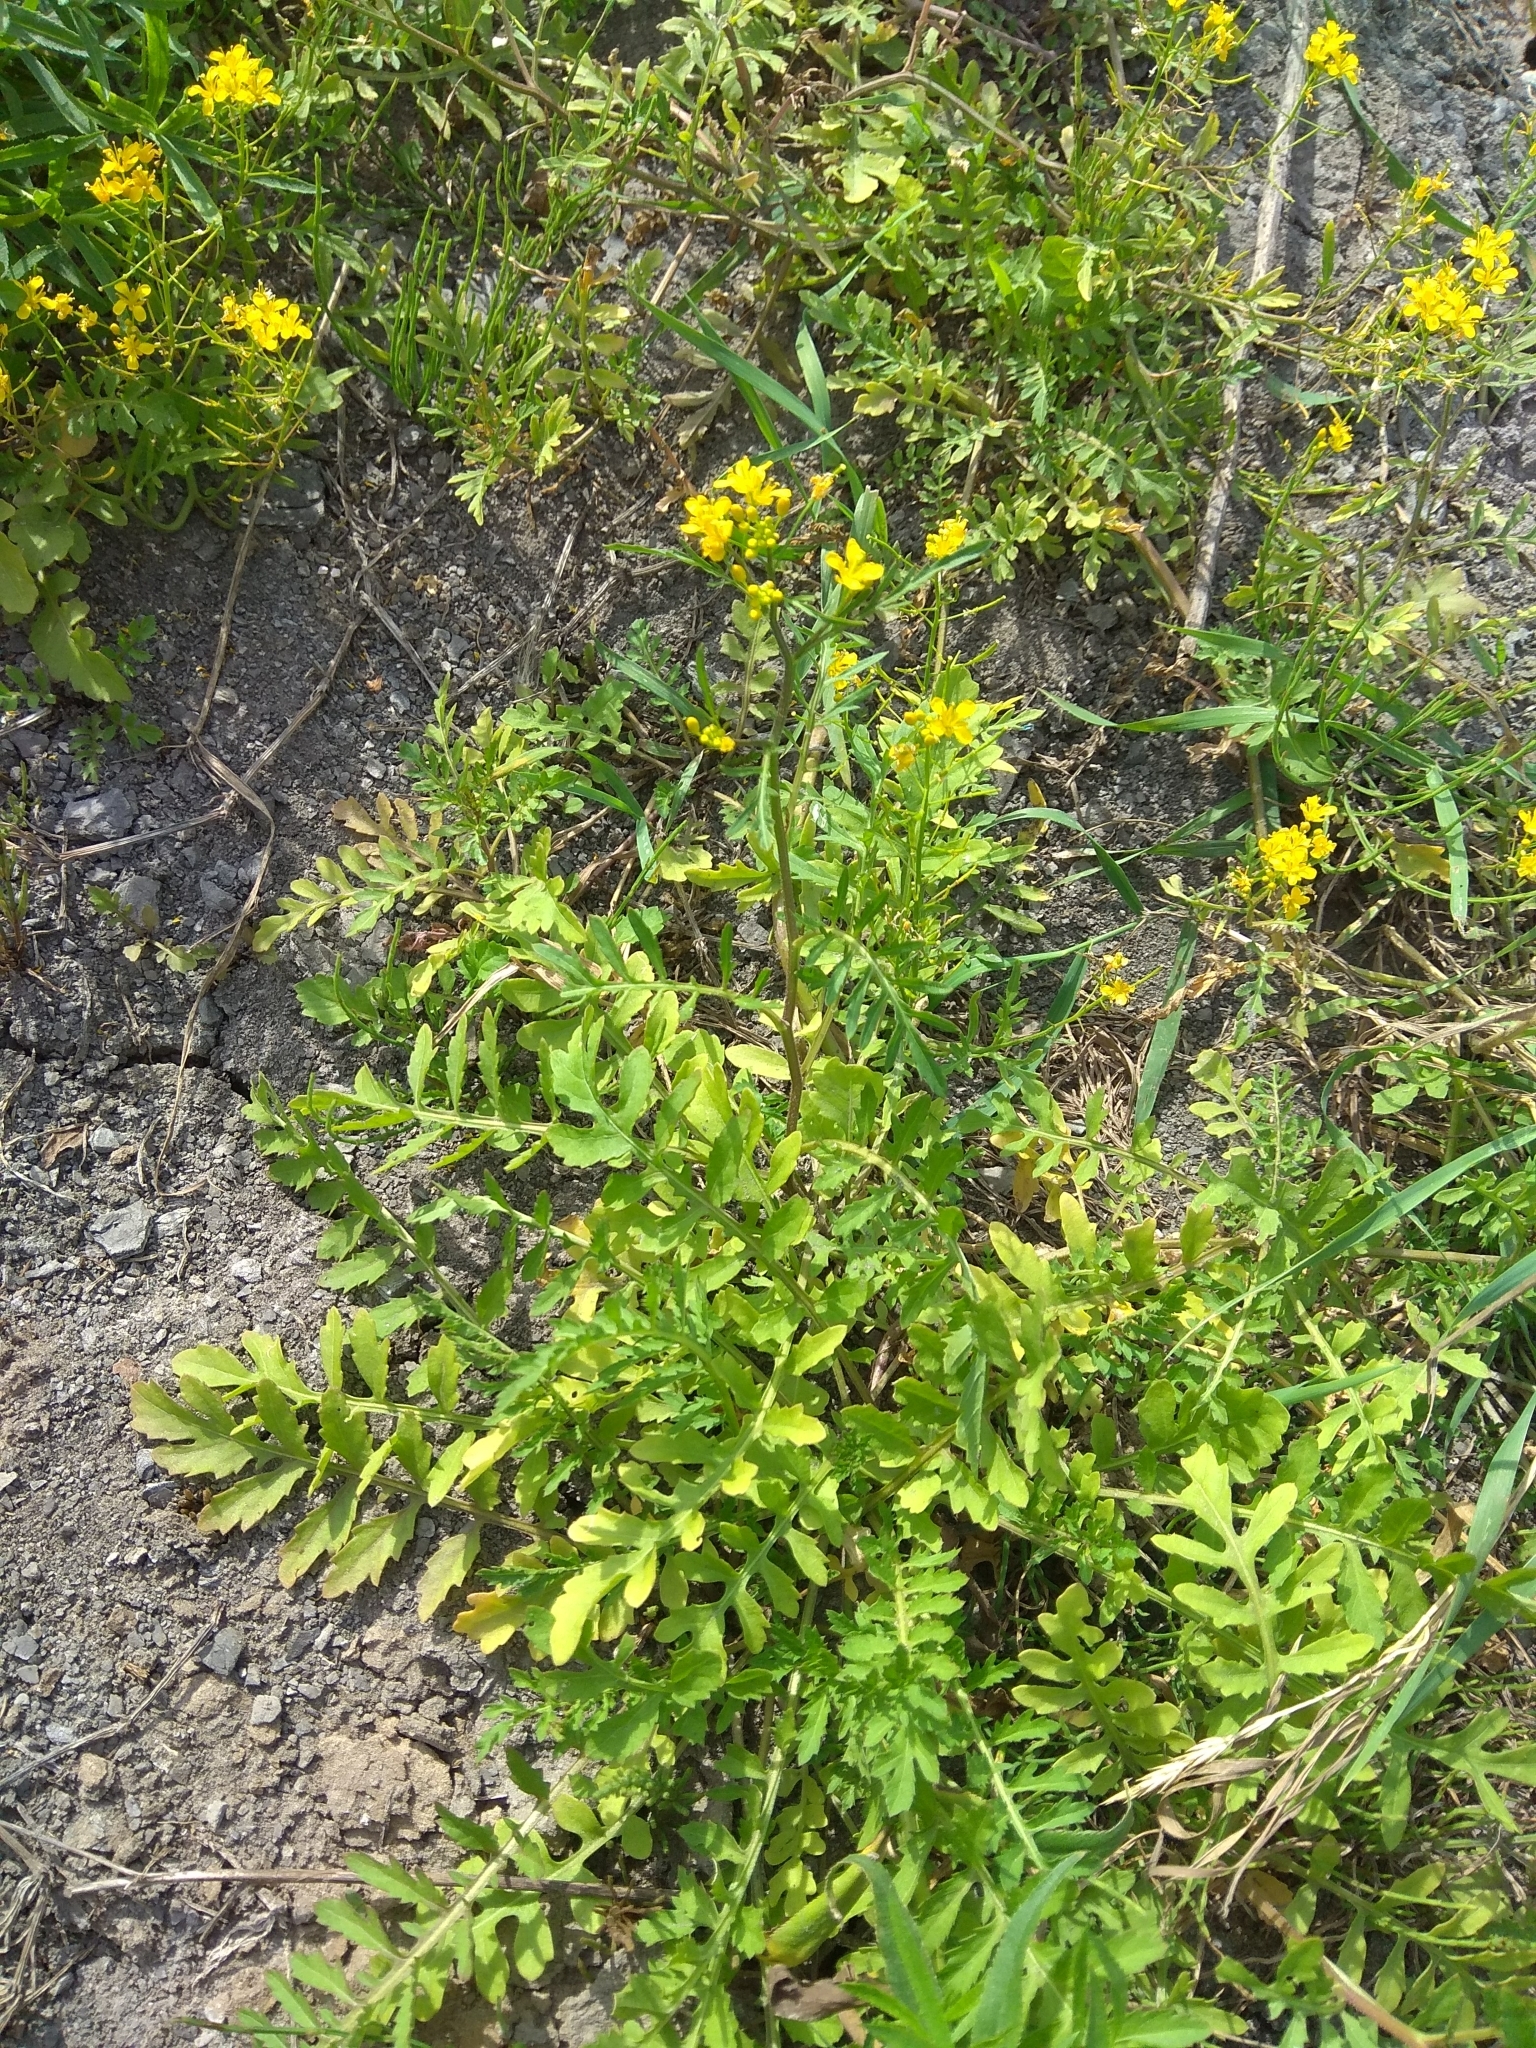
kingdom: Plantae
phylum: Tracheophyta
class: Magnoliopsida
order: Brassicales
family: Brassicaceae
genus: Rorippa
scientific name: Rorippa sylvestris
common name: Creeping yellowcress
